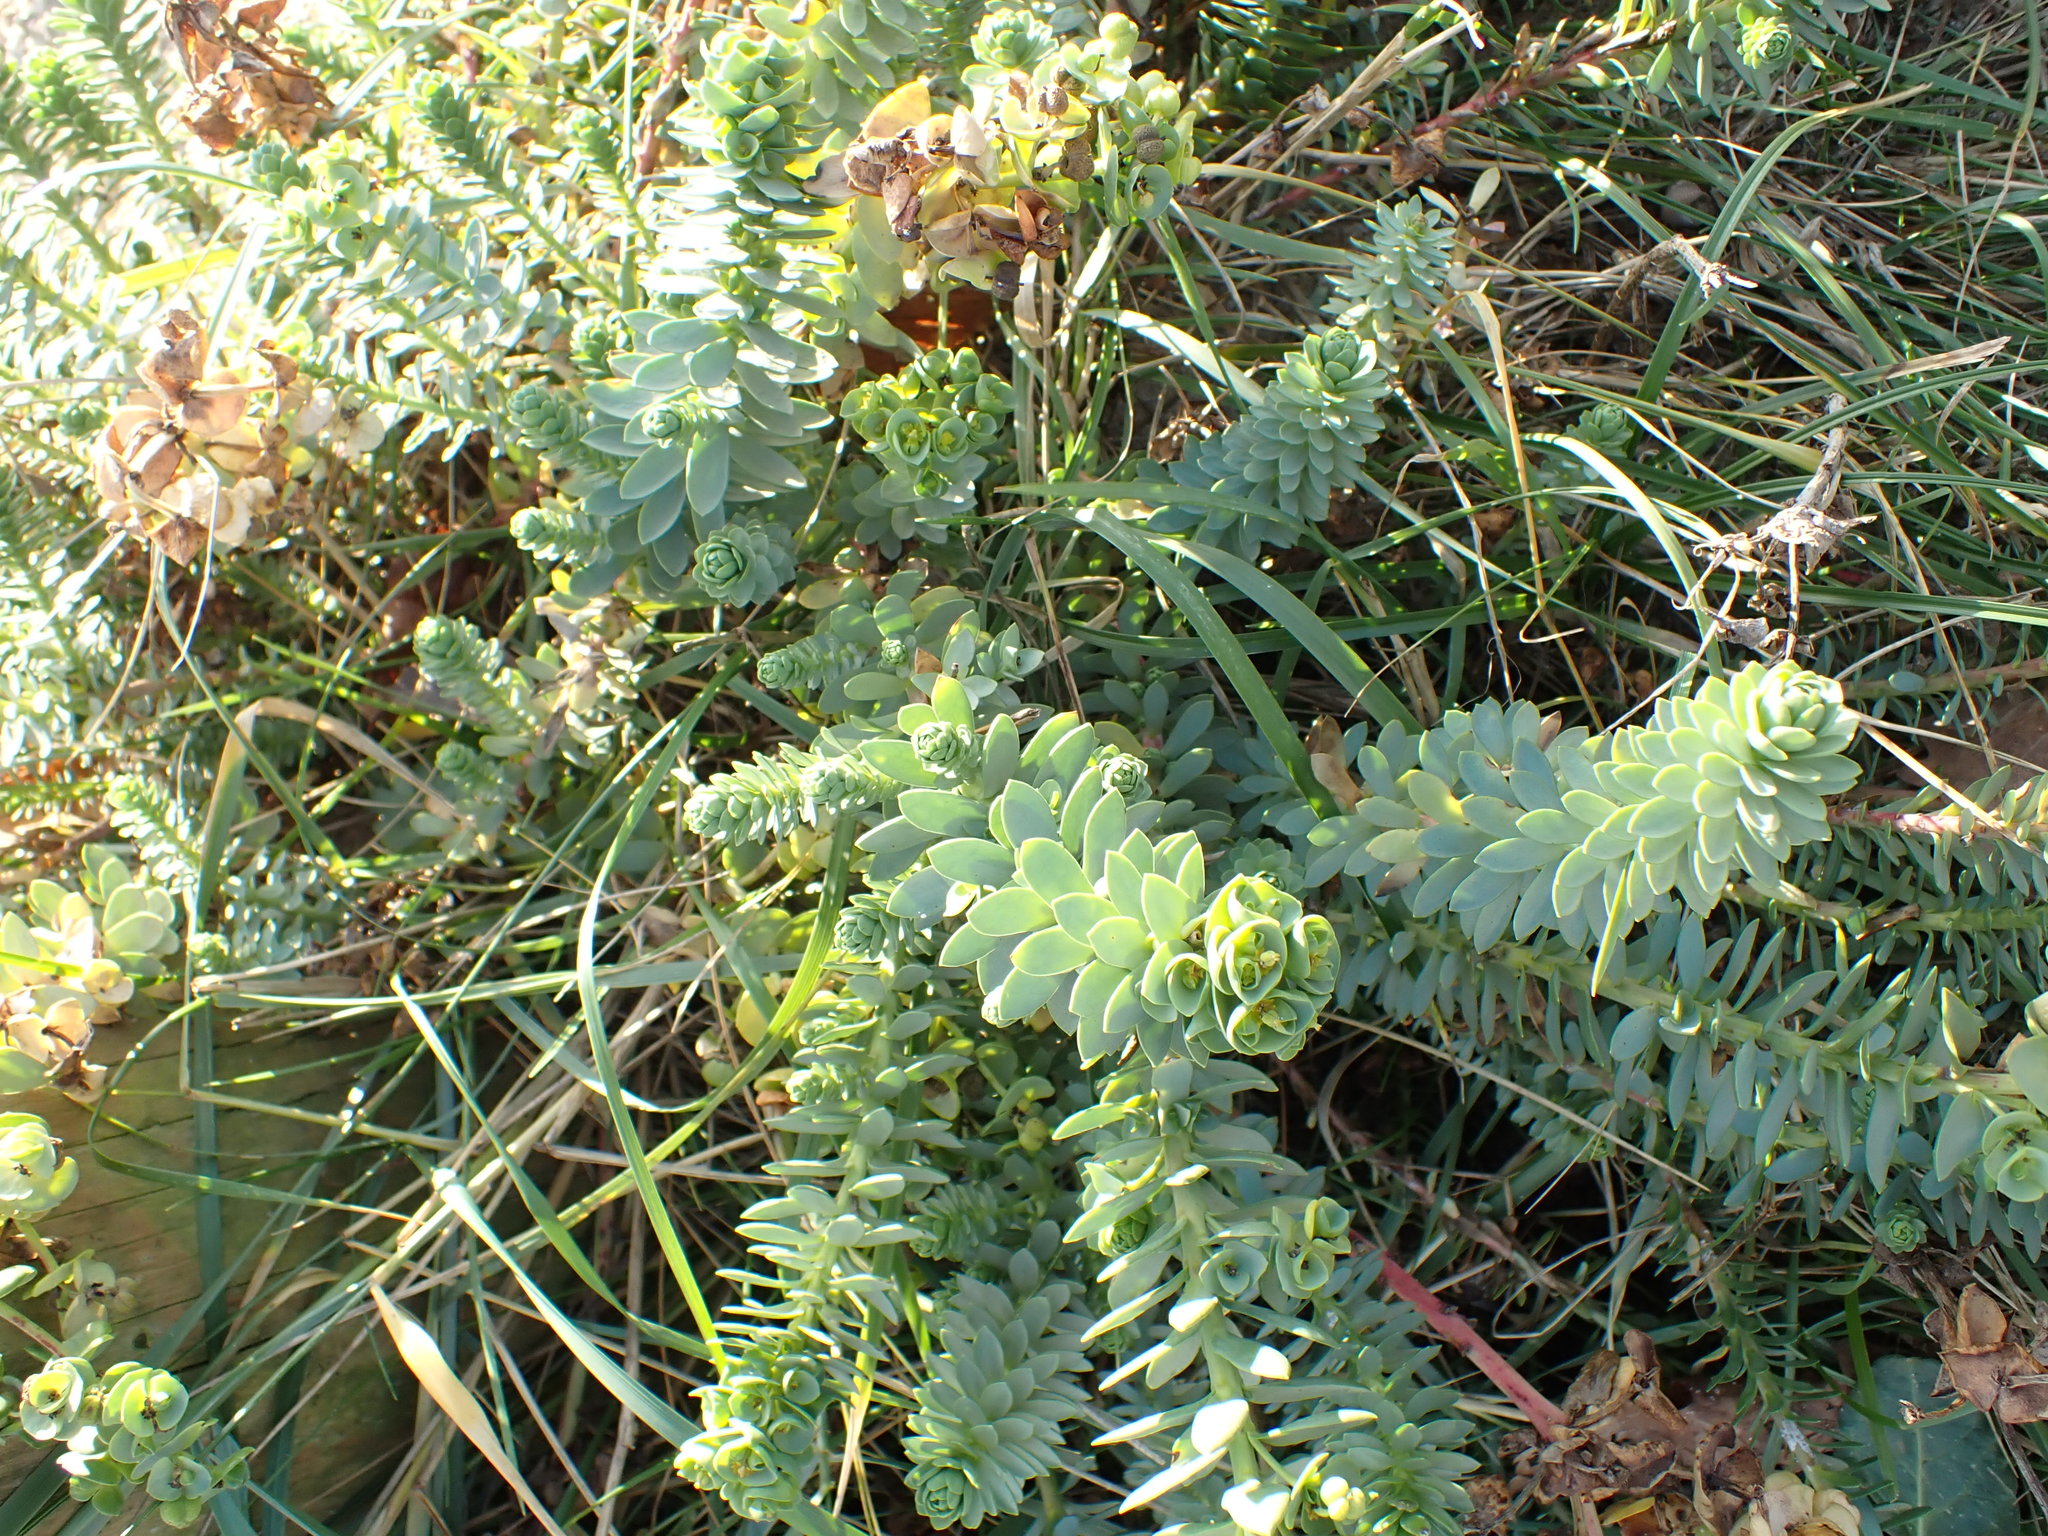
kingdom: Plantae
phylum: Tracheophyta
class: Magnoliopsida
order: Malpighiales
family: Euphorbiaceae
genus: Euphorbia
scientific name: Euphorbia paralias
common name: Sea spurge
